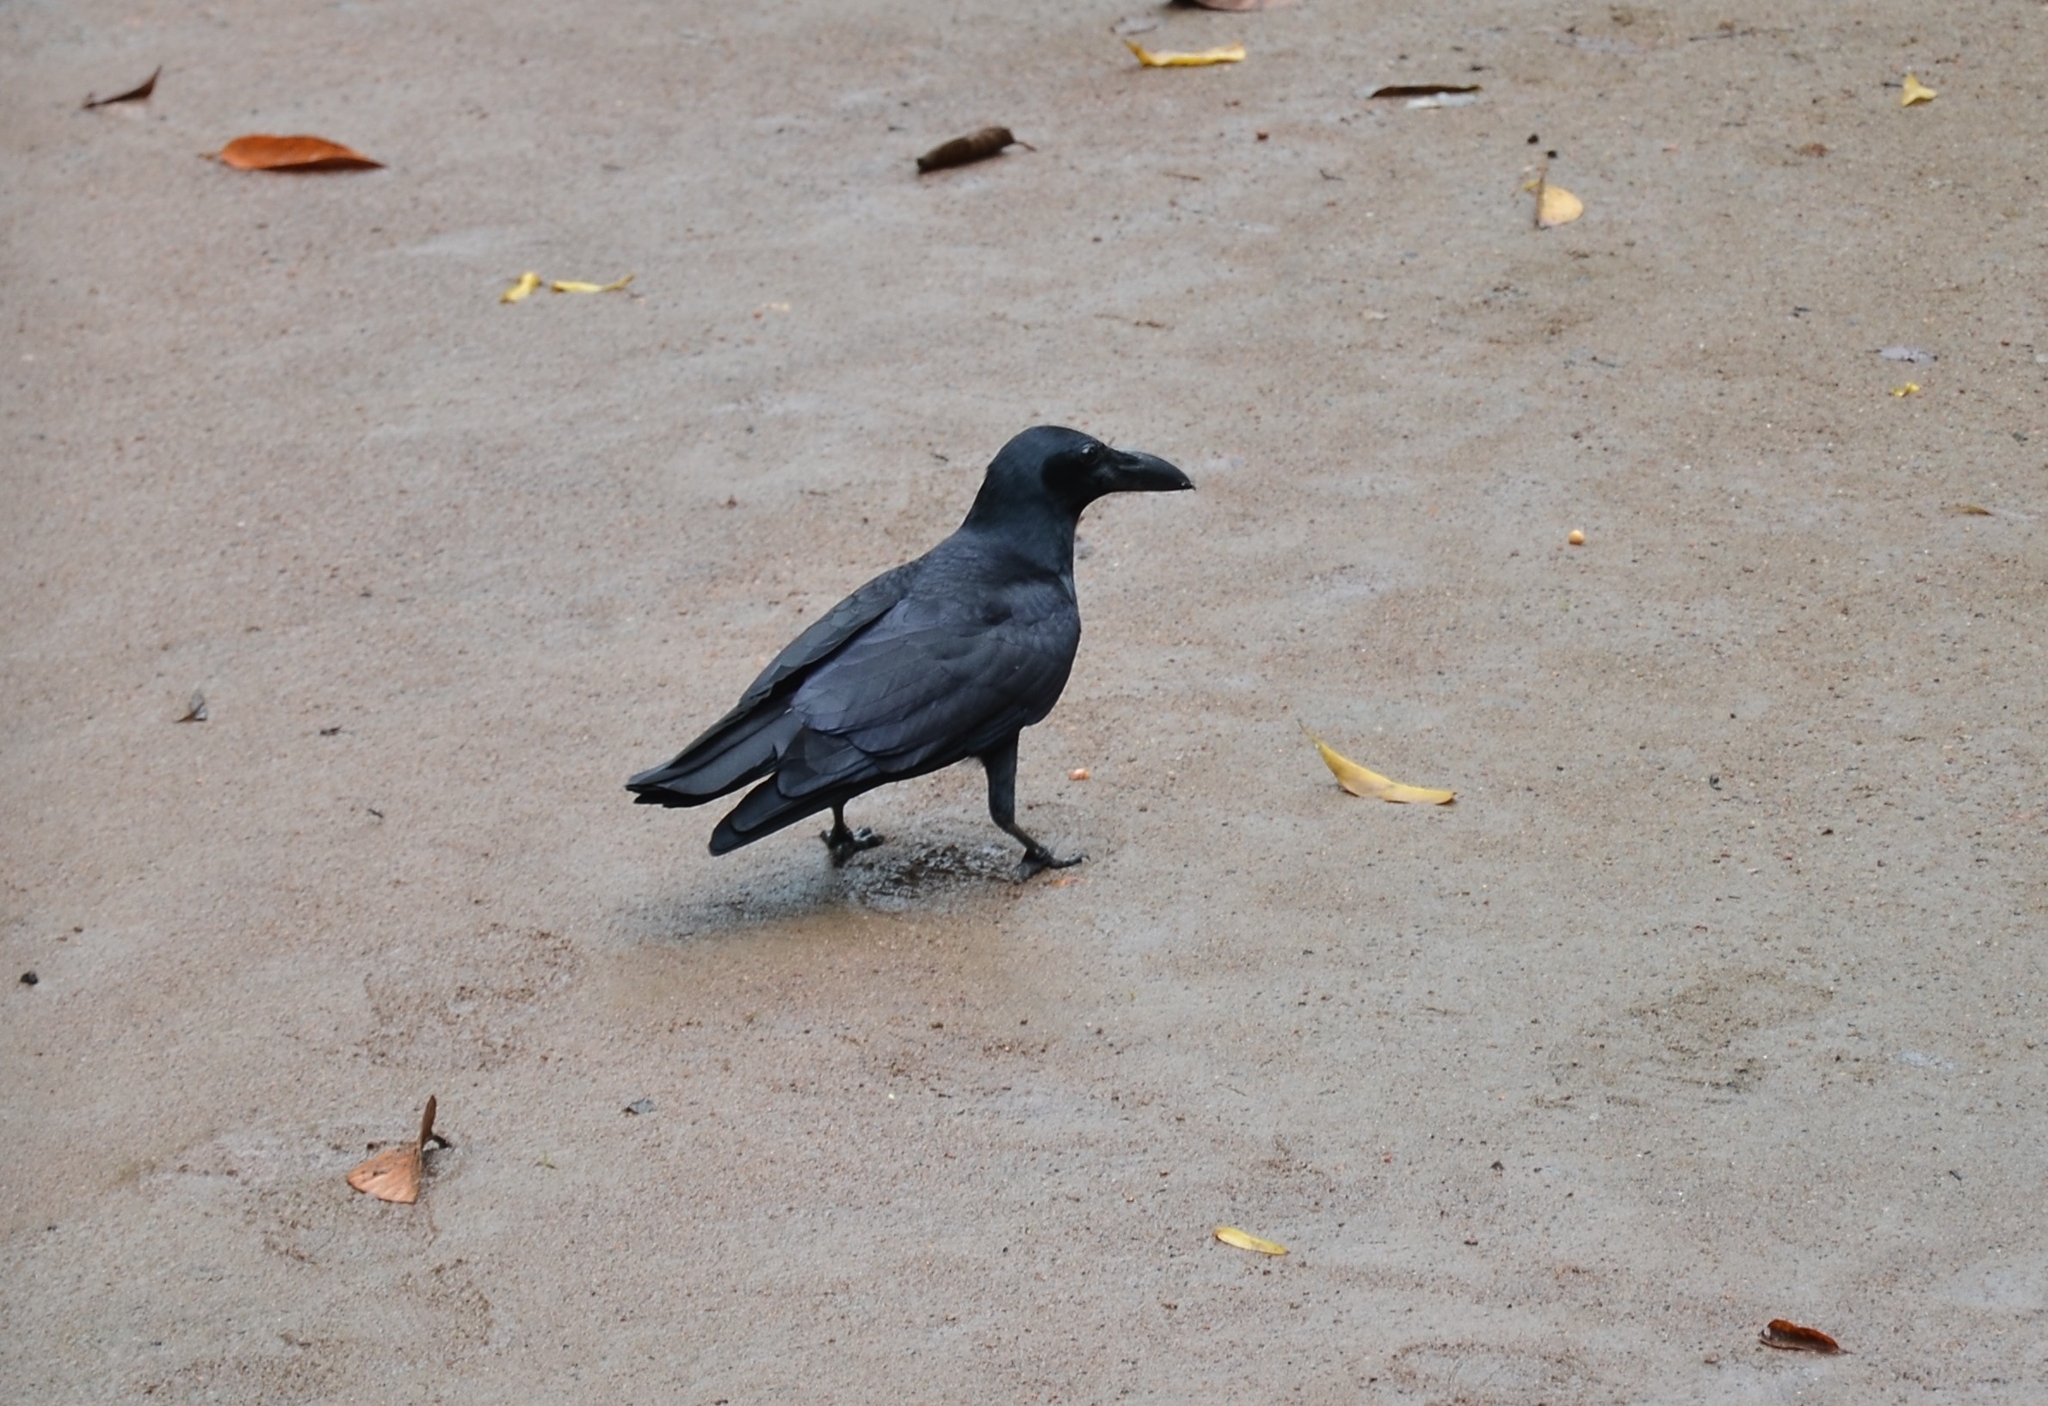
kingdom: Animalia
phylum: Chordata
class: Aves
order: Passeriformes
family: Corvidae
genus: Corvus
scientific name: Corvus macrorhynchos
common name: Large-billed crow
